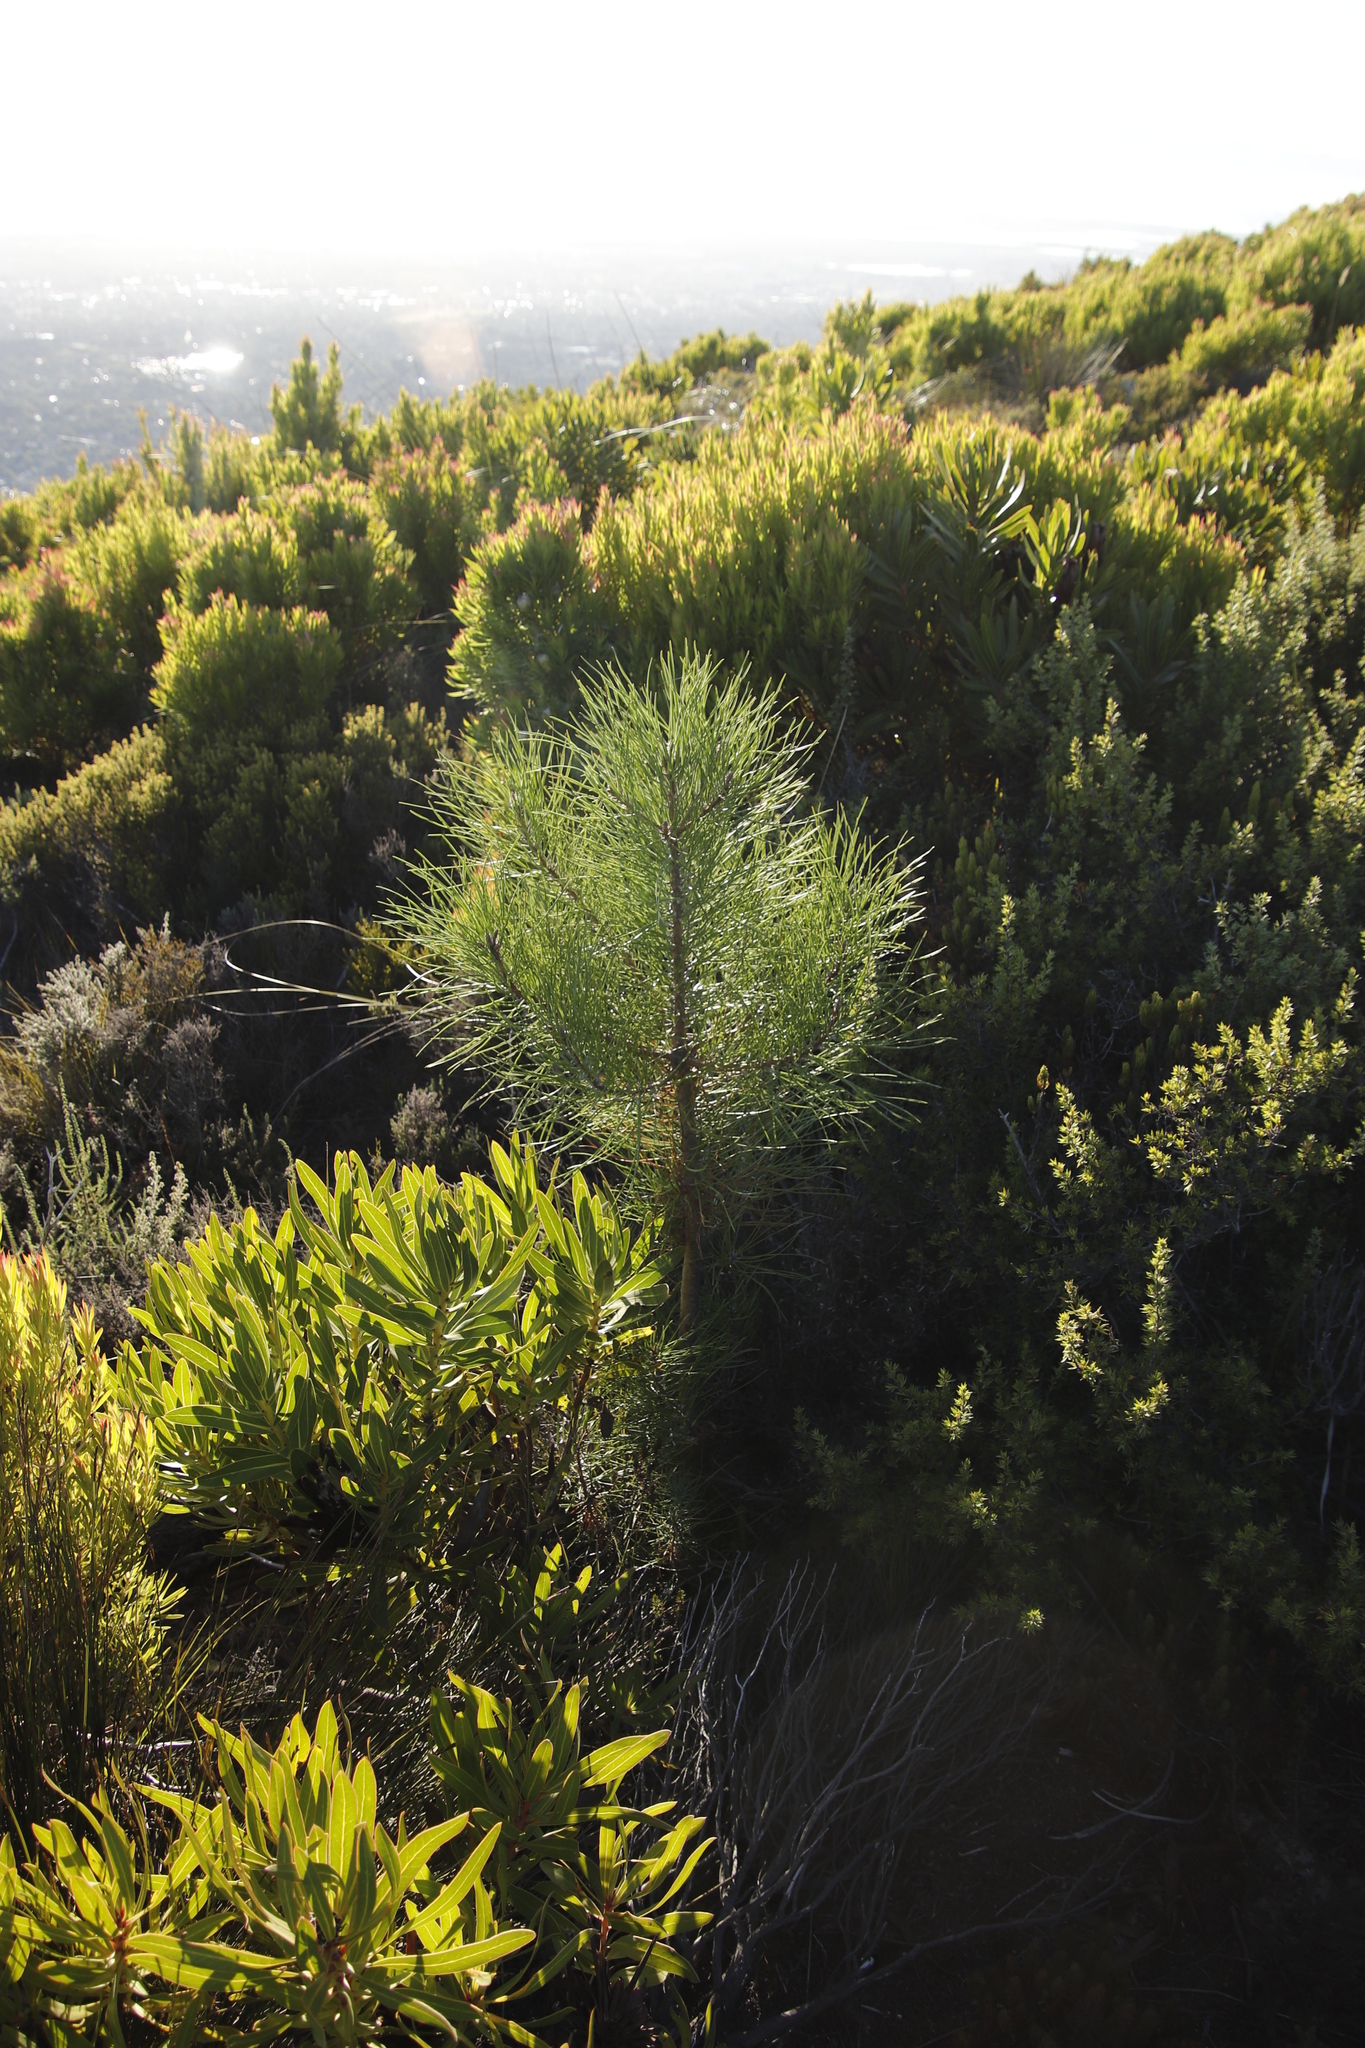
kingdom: Plantae
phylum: Tracheophyta
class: Pinopsida
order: Pinales
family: Pinaceae
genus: Pinus
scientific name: Pinus pinaster
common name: Maritime pine
